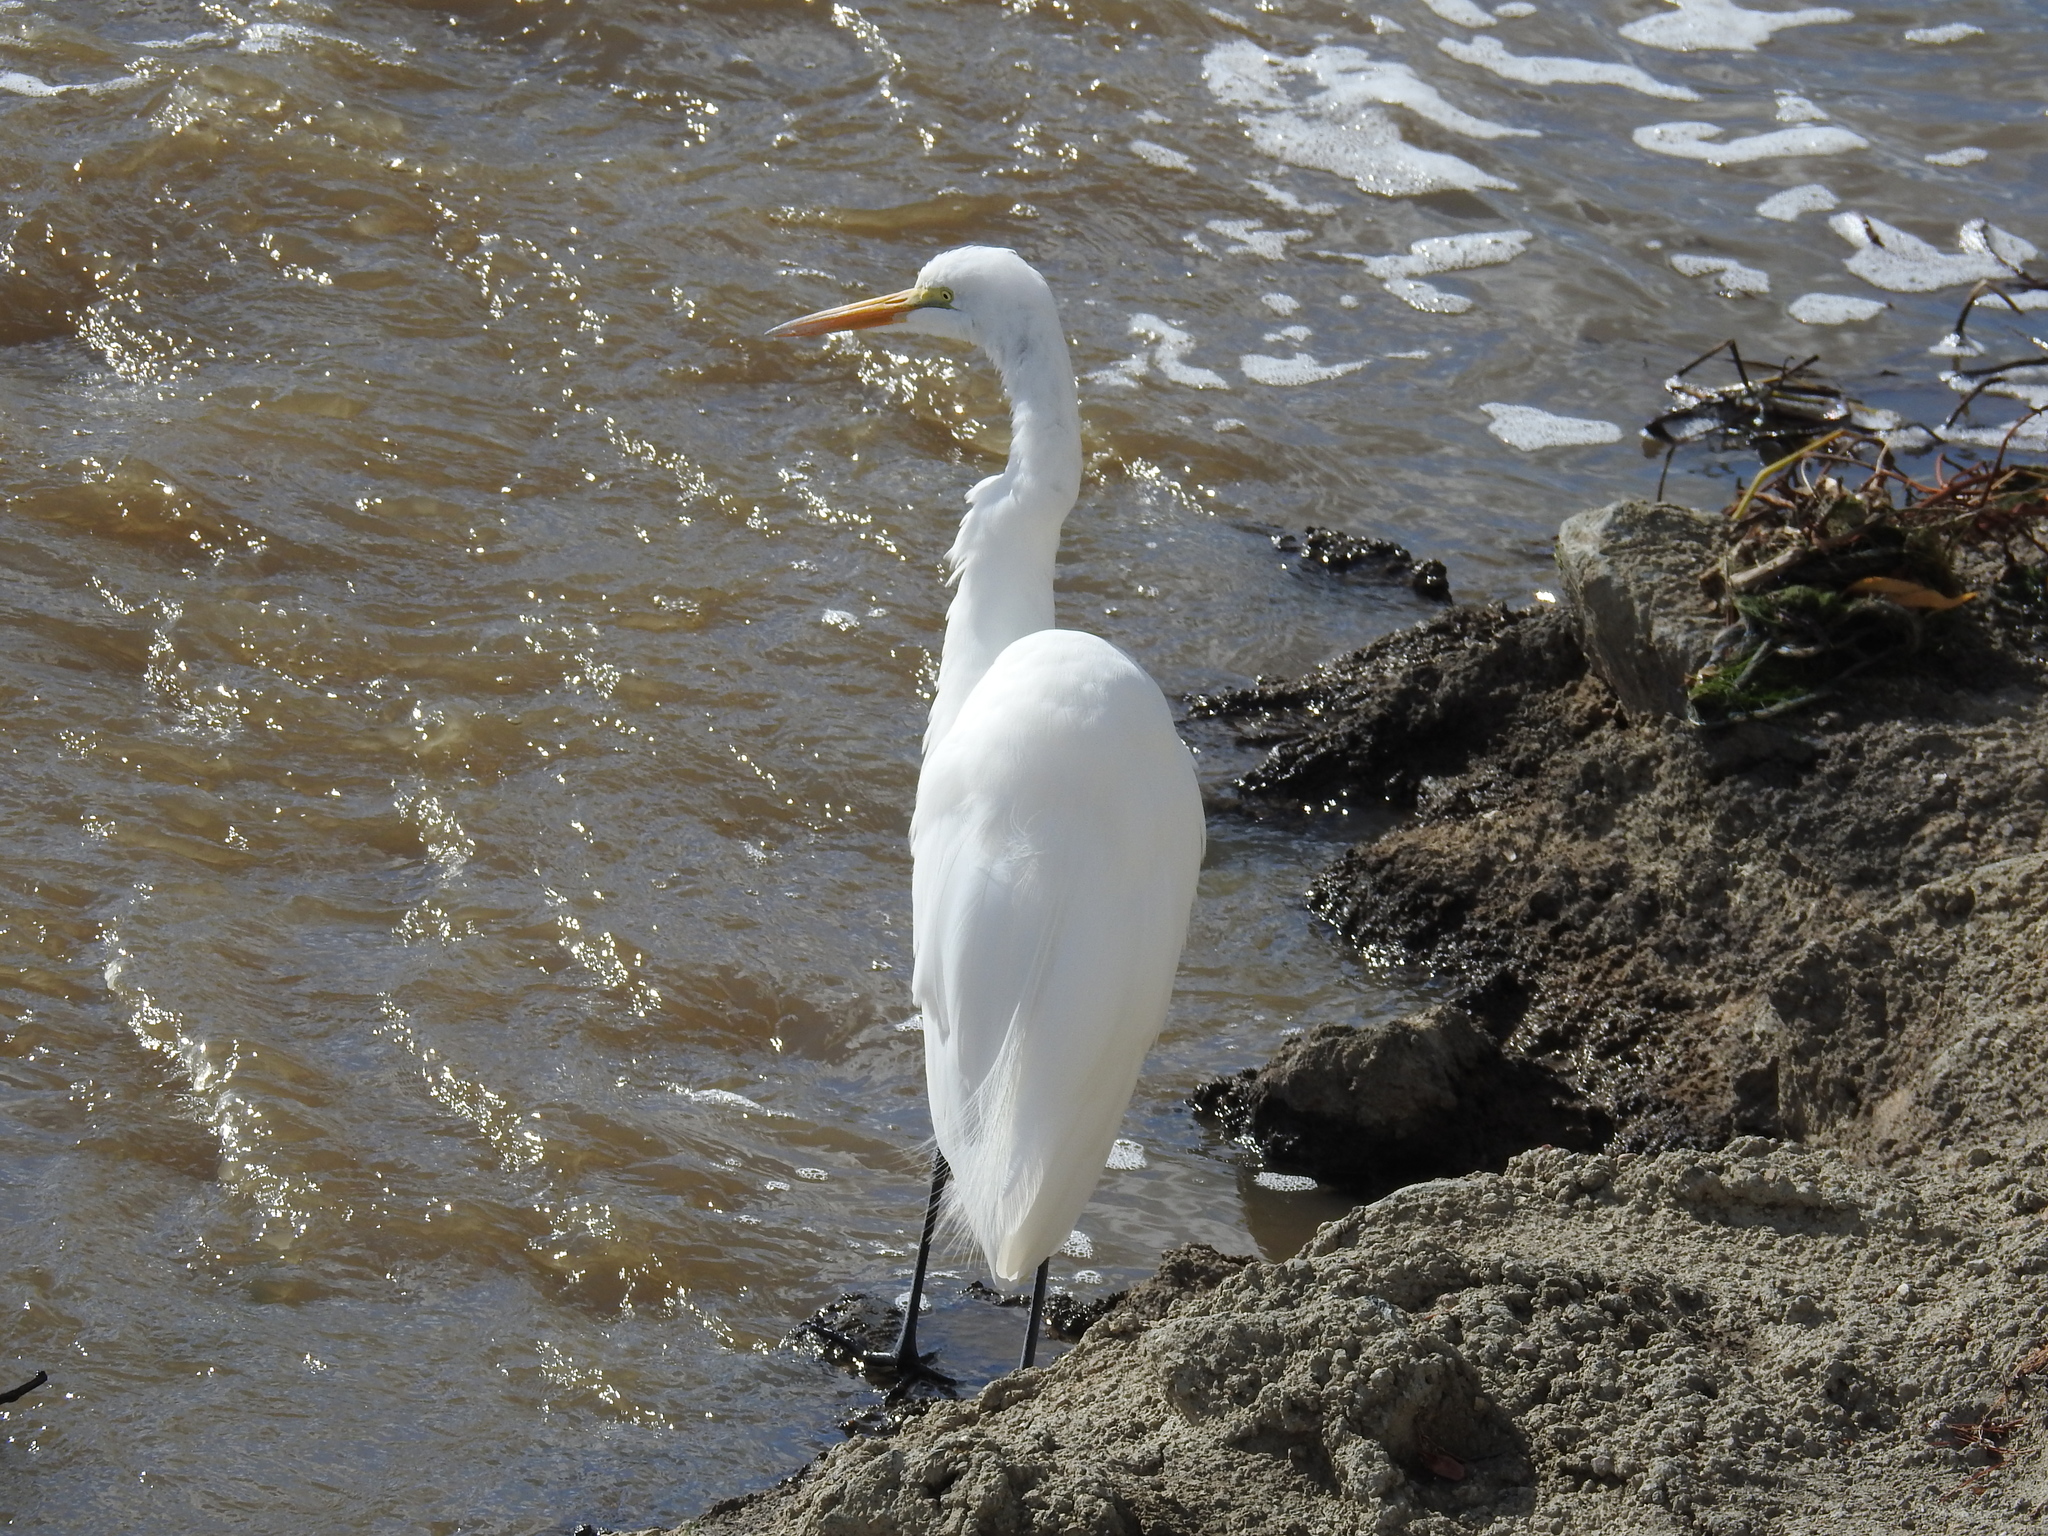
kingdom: Animalia
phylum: Chordata
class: Aves
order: Pelecaniformes
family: Ardeidae
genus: Ardea
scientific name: Ardea alba
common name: Great egret
